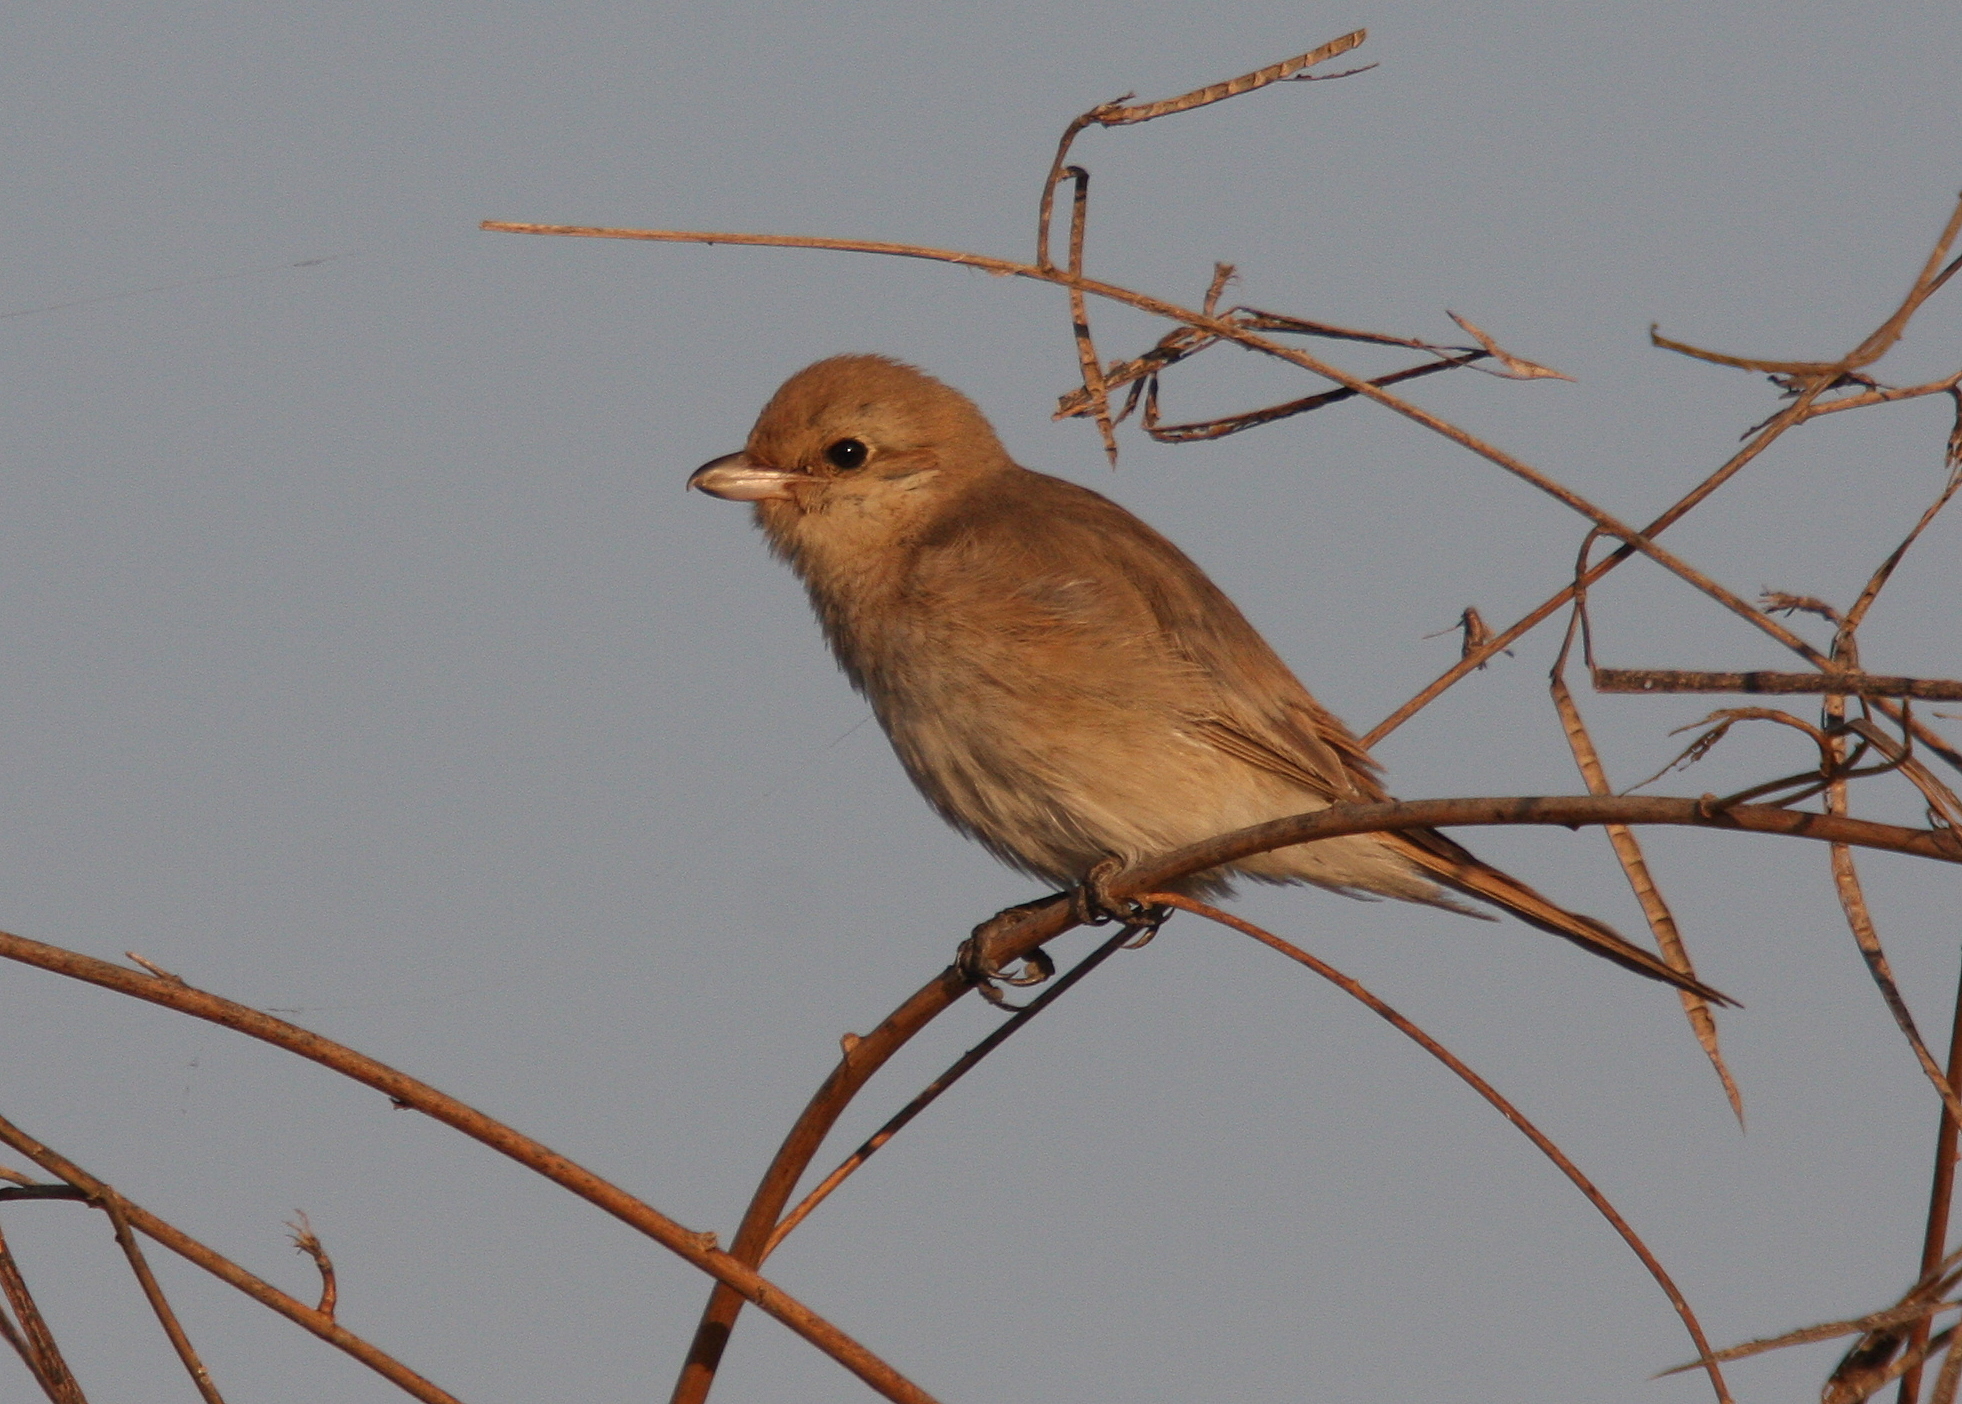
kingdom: Animalia
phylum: Chordata
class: Aves
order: Passeriformes
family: Laniidae
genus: Lanius
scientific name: Lanius isabellinus
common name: Isabelline shrike
